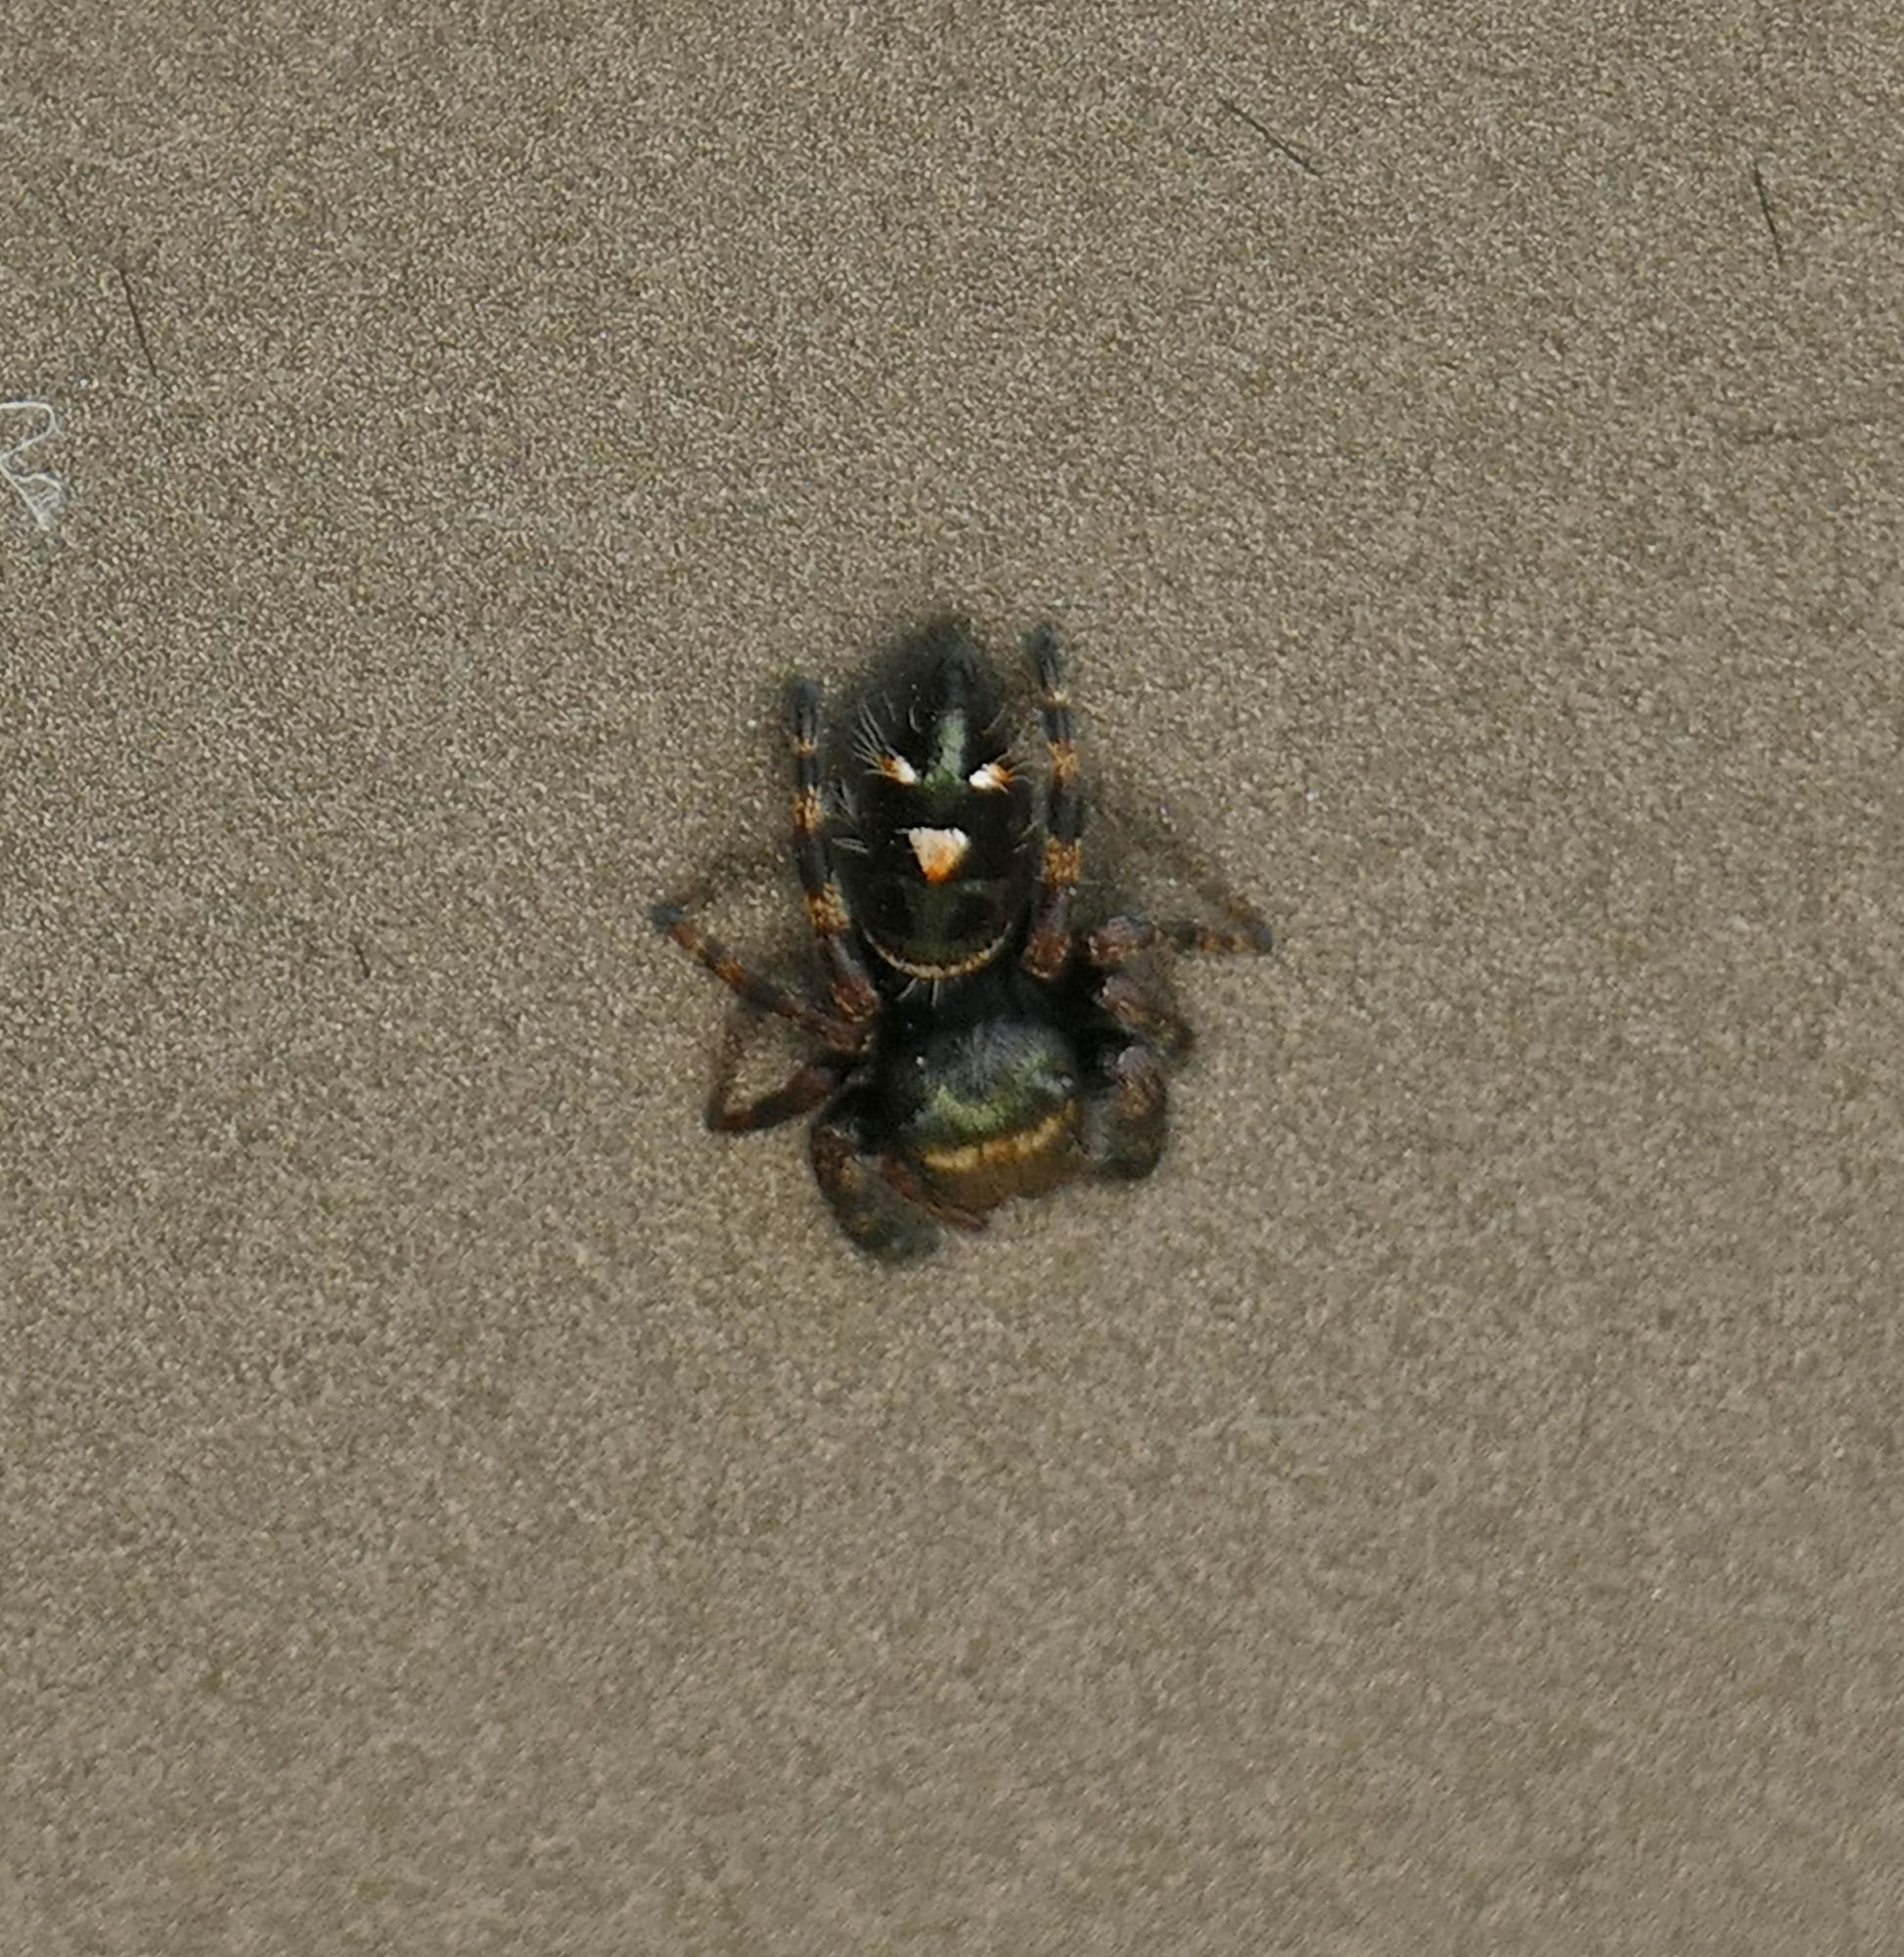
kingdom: Animalia
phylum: Arthropoda
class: Arachnida
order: Araneae
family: Salticidae
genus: Phidippus
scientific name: Phidippus audax
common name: Bold jumper
